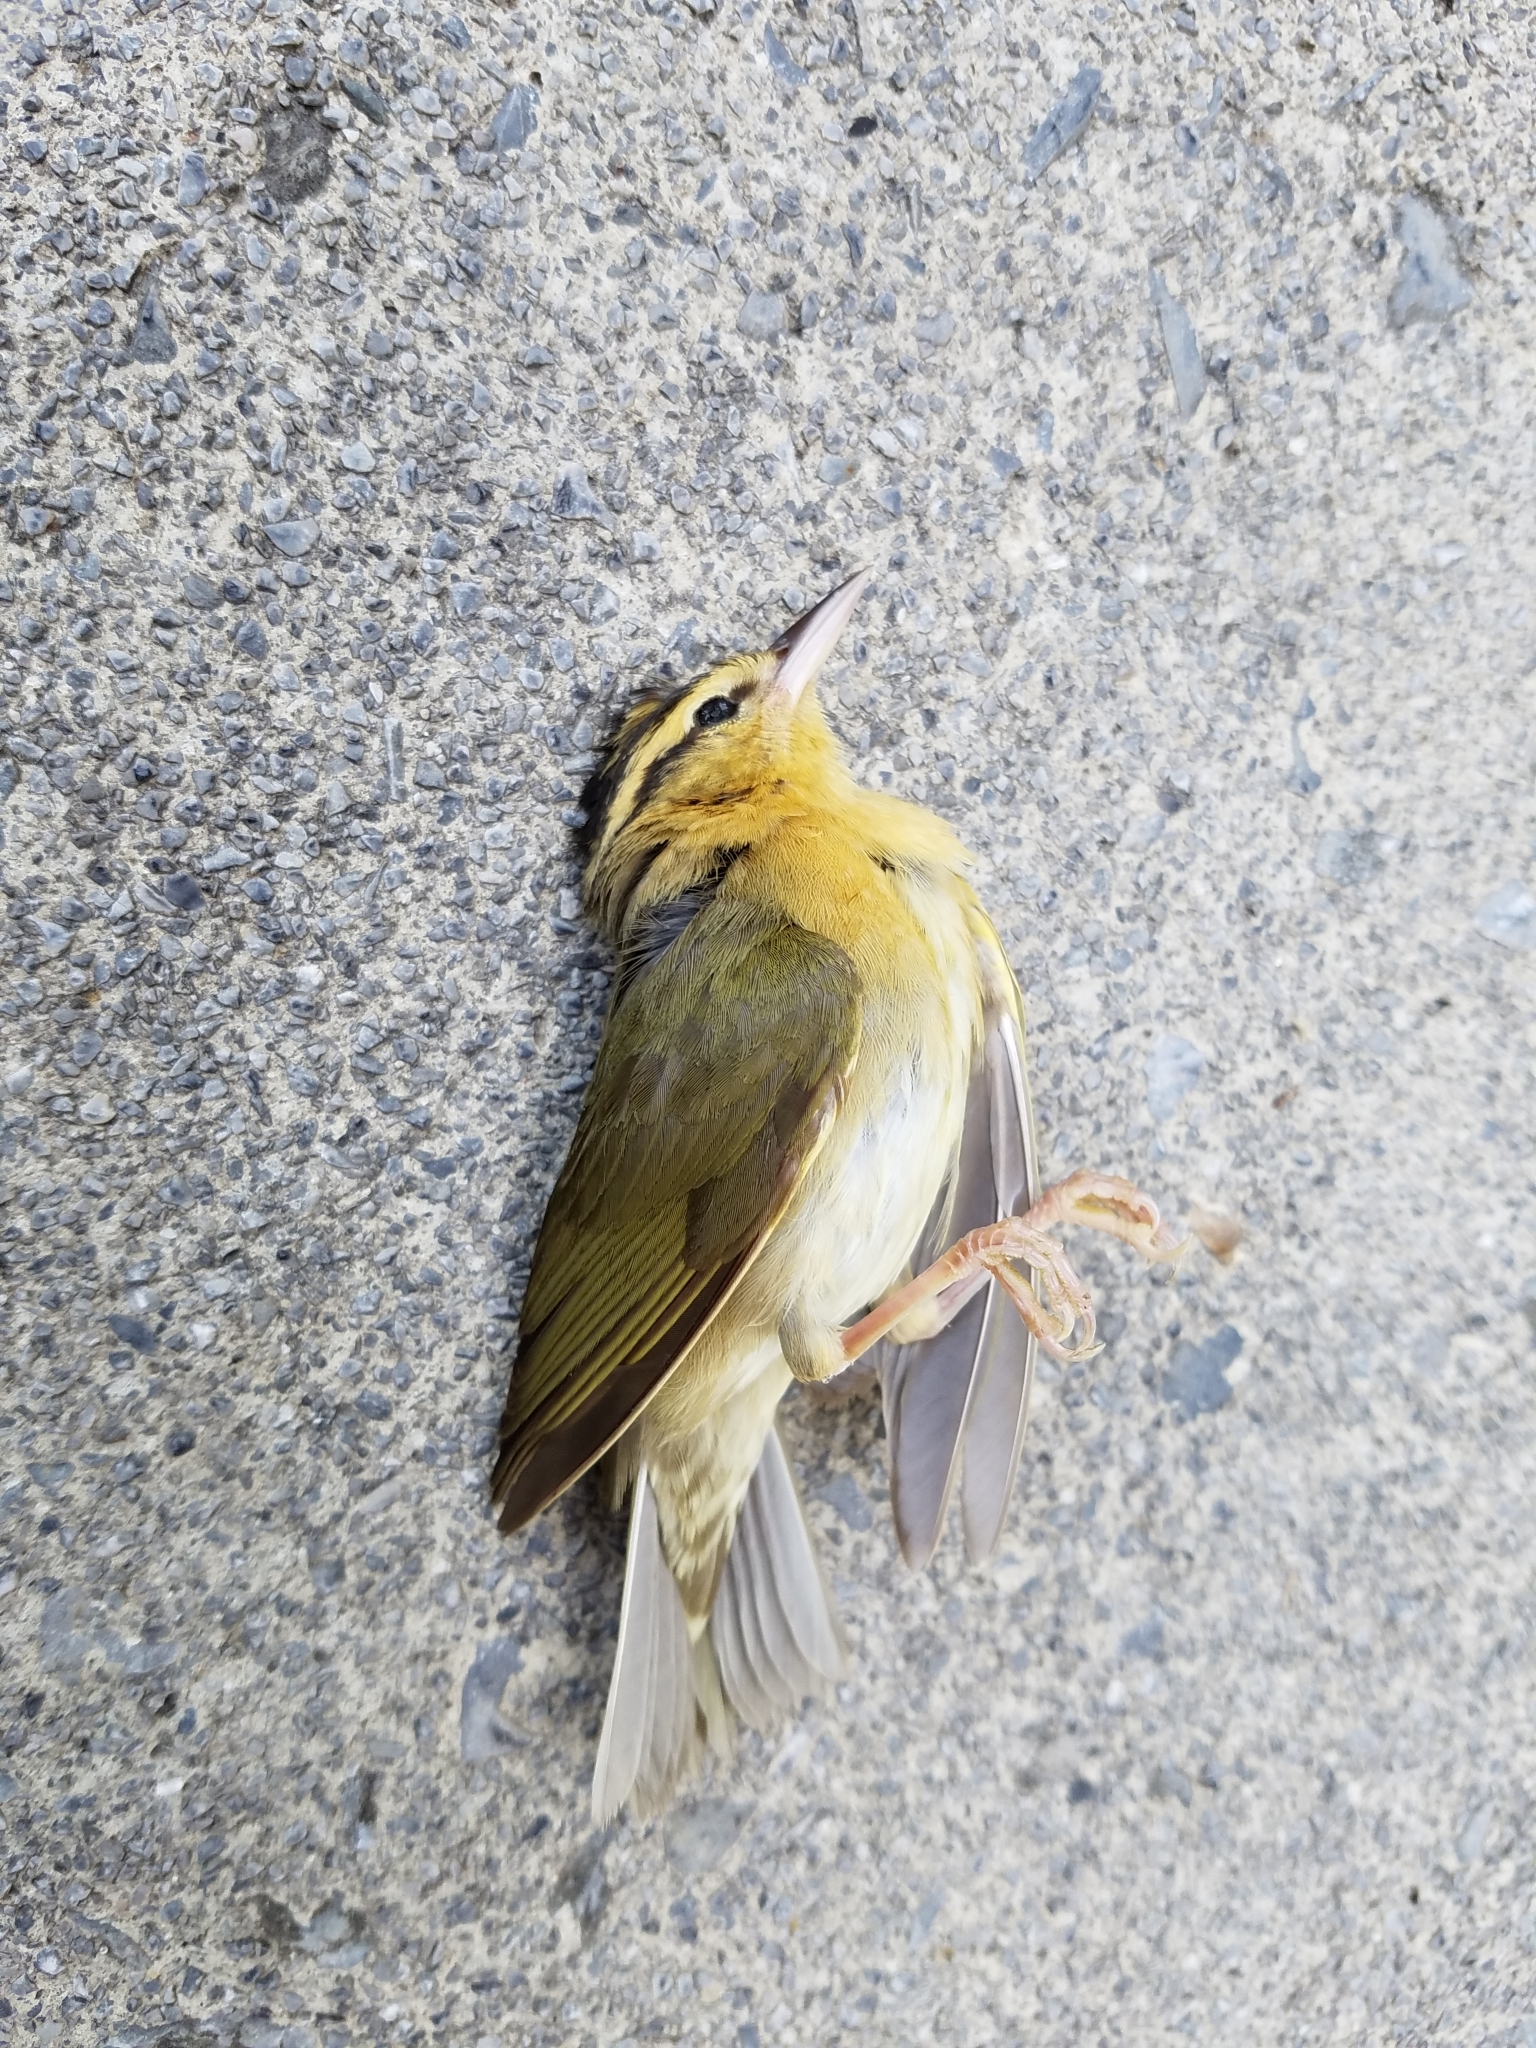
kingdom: Animalia
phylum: Chordata
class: Aves
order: Passeriformes
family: Parulidae
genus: Helmitheros
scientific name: Helmitheros vermivorum
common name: Worm-eating warbler
